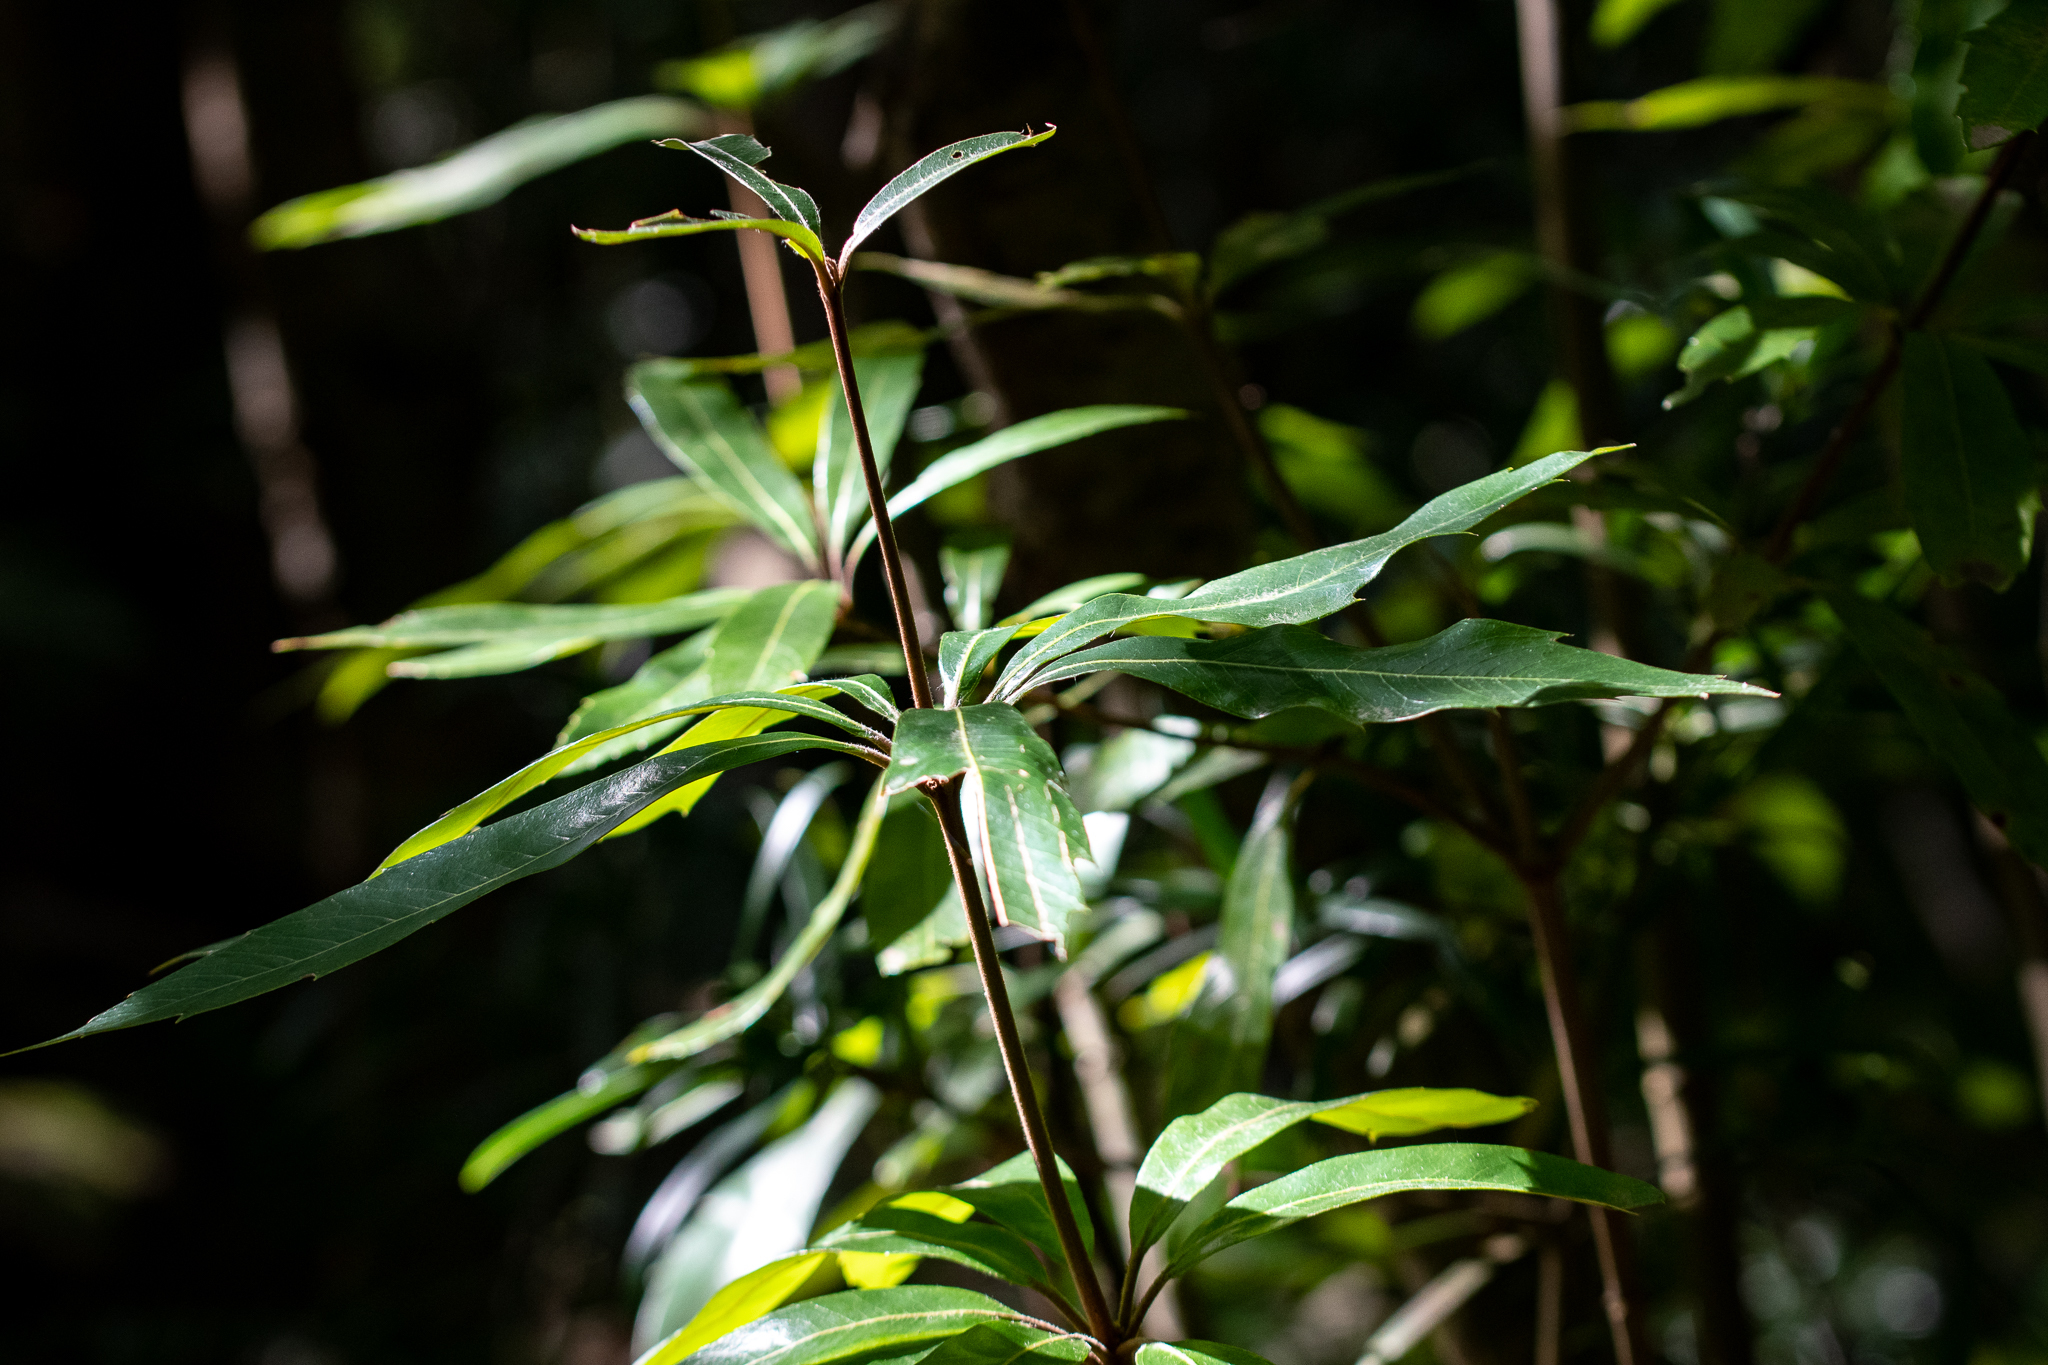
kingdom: Plantae
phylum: Tracheophyta
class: Magnoliopsida
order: Proteales
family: Proteaceae
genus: Brabejum
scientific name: Brabejum stellatifolium
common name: Wild almond
